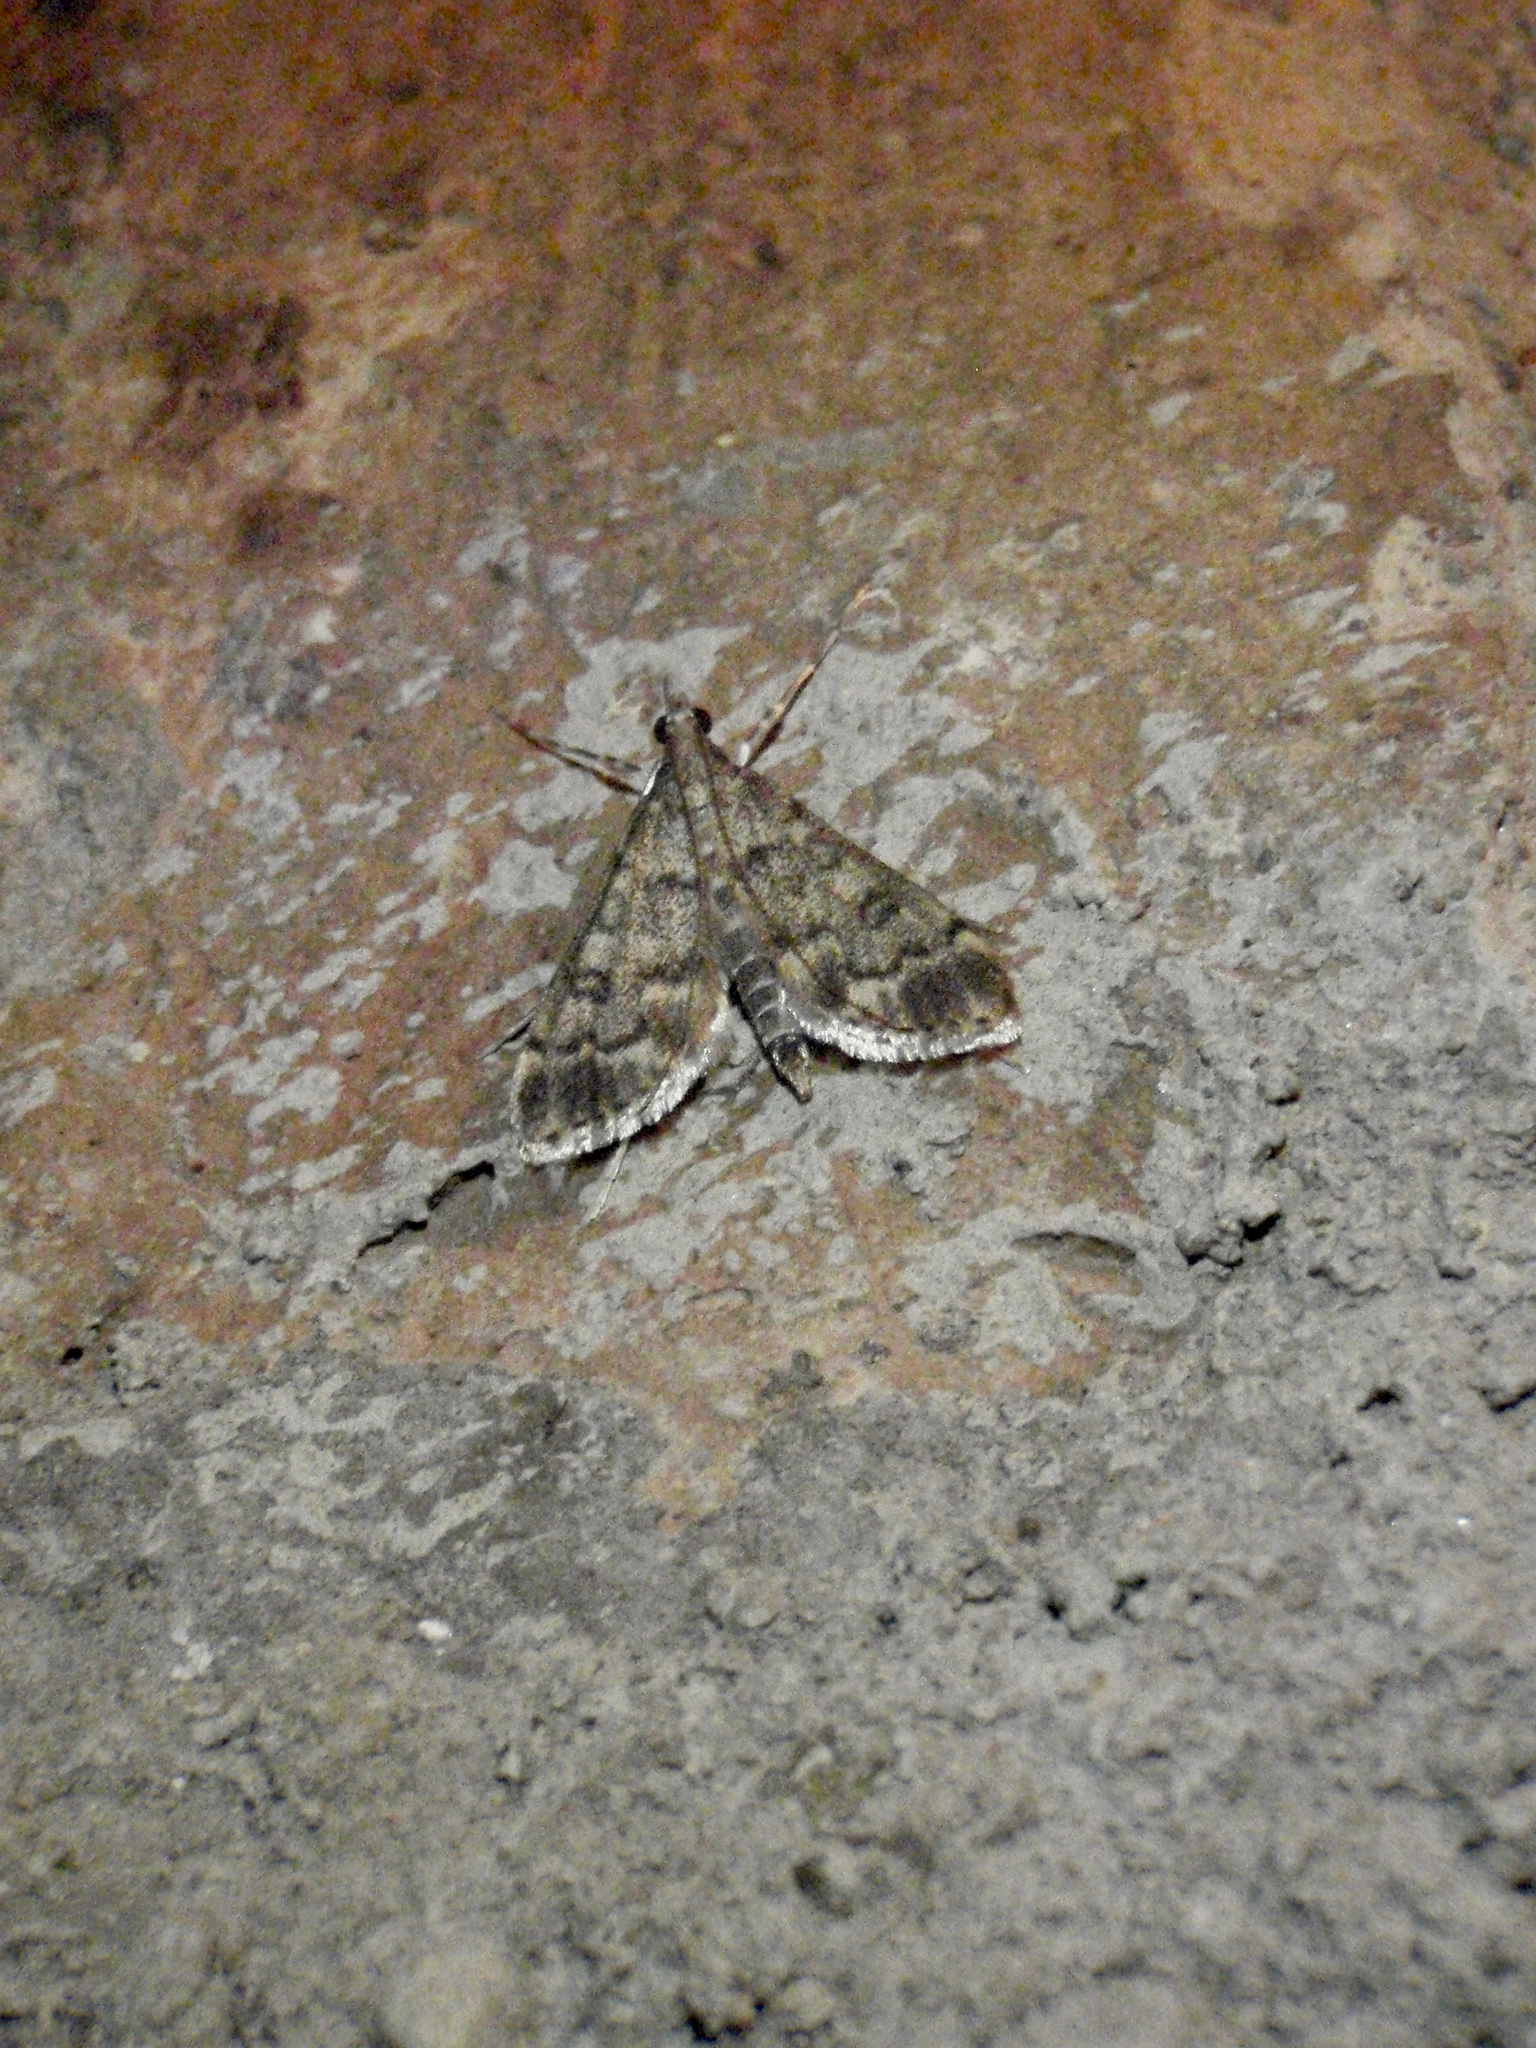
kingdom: Animalia
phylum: Arthropoda
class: Insecta
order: Lepidoptera
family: Crambidae
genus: Stenia
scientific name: Stenia Dolicharthria bruguieralis
